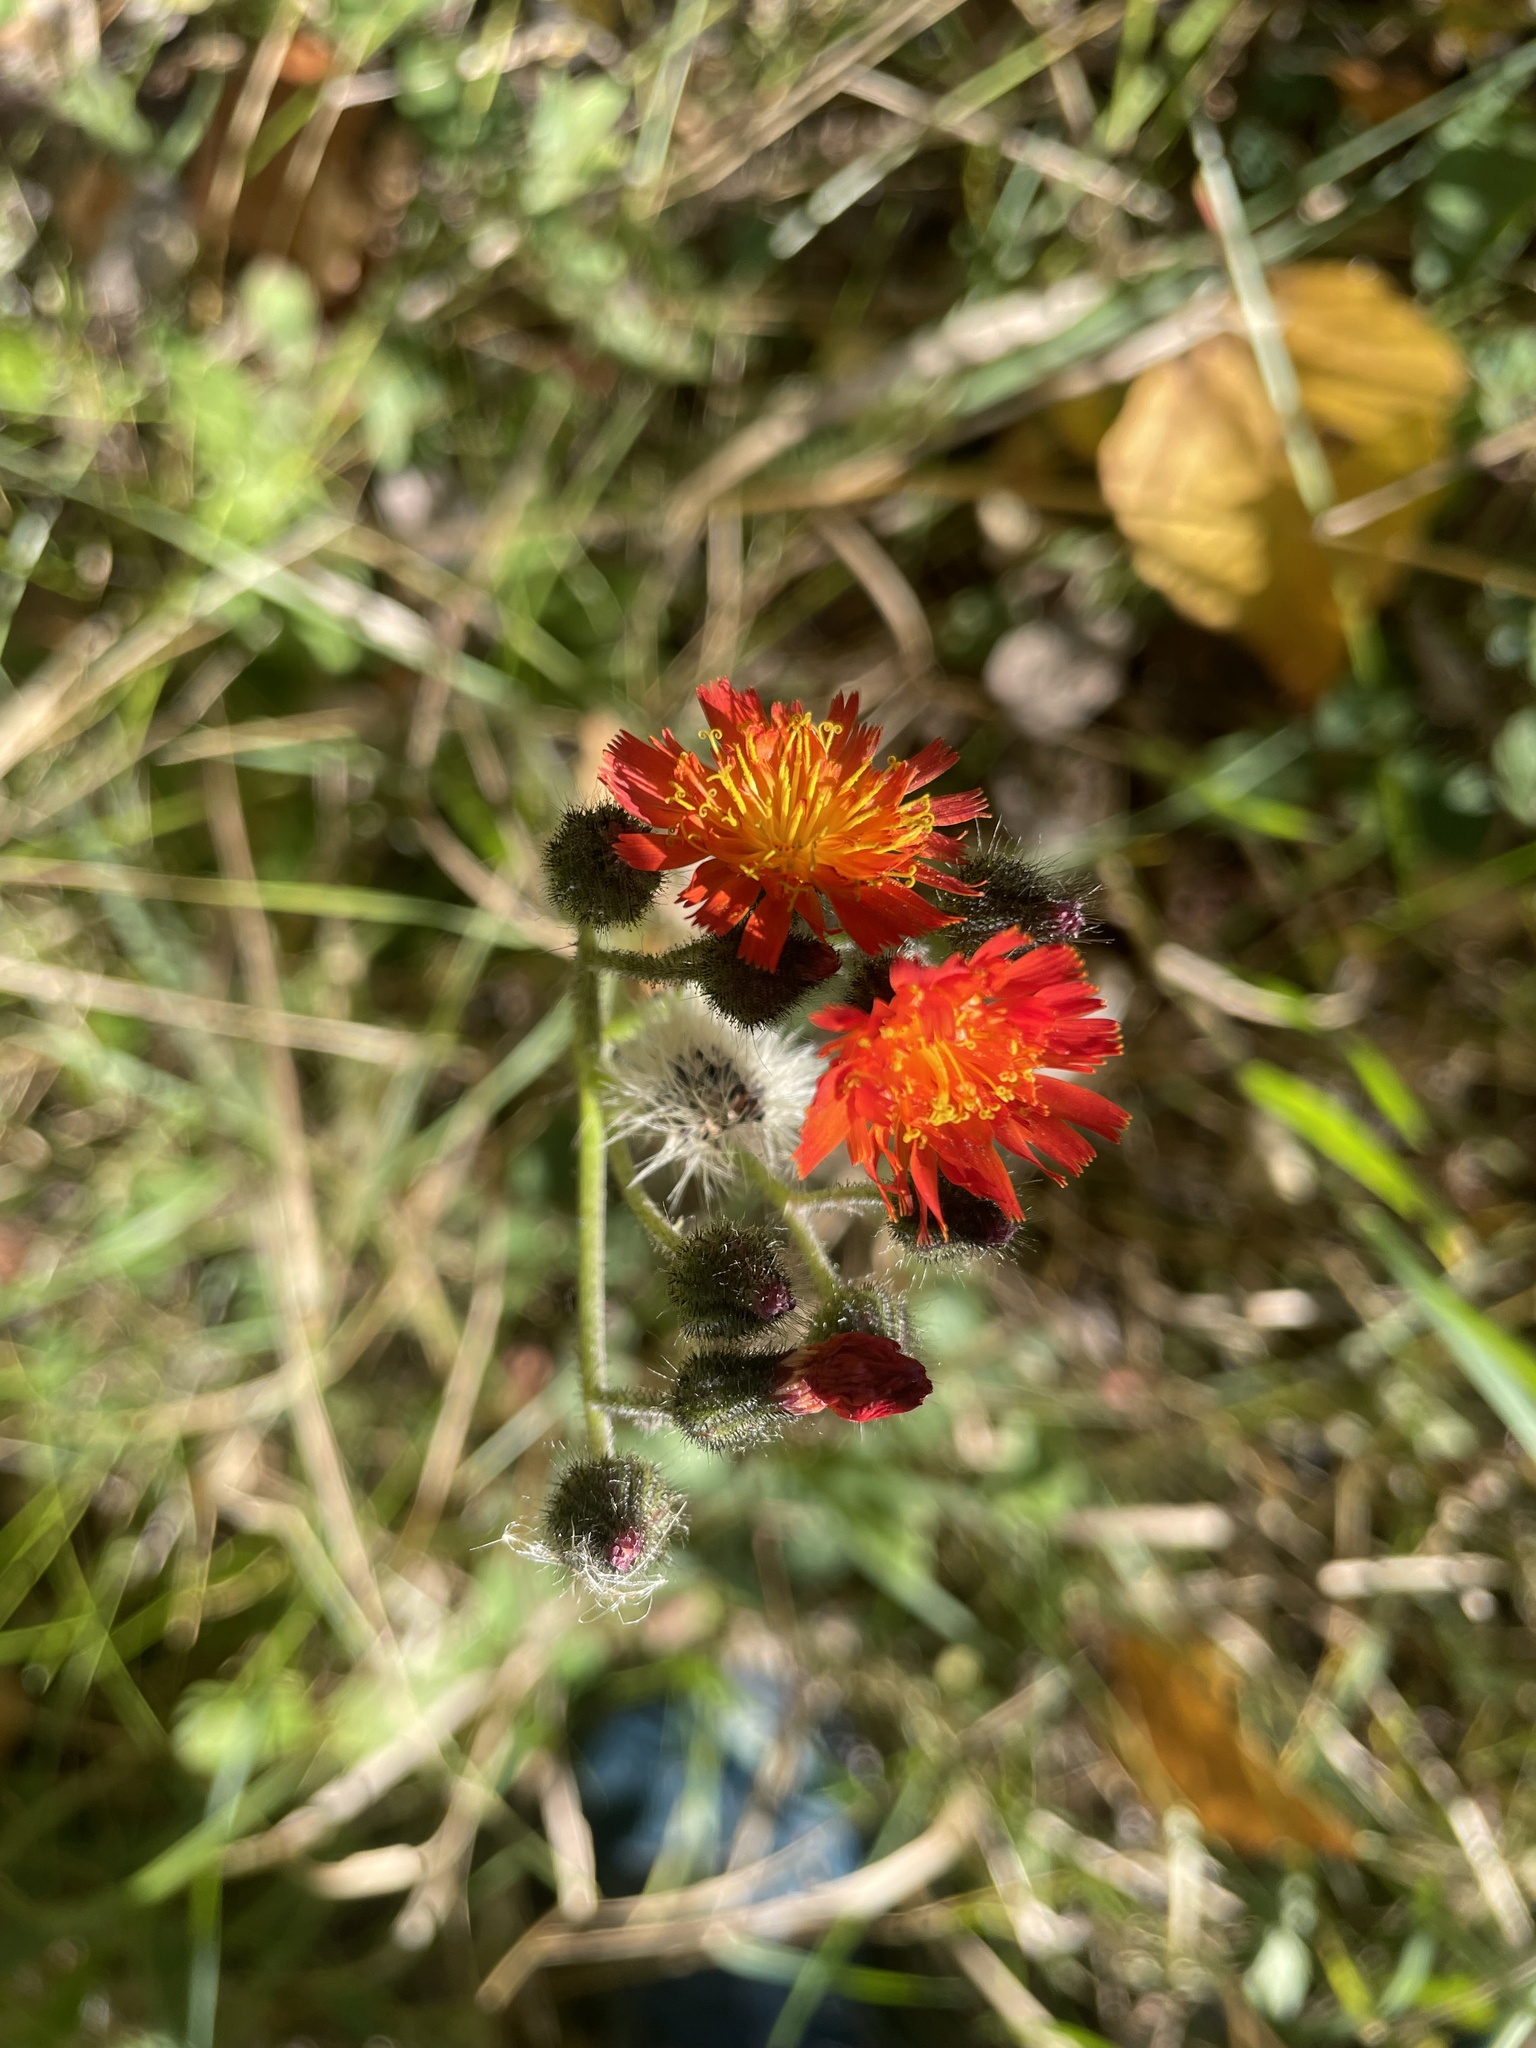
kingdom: Plantae
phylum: Tracheophyta
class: Magnoliopsida
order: Asterales
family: Asteraceae
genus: Pilosella
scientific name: Pilosella aurantiaca
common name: Fox-and-cubs
